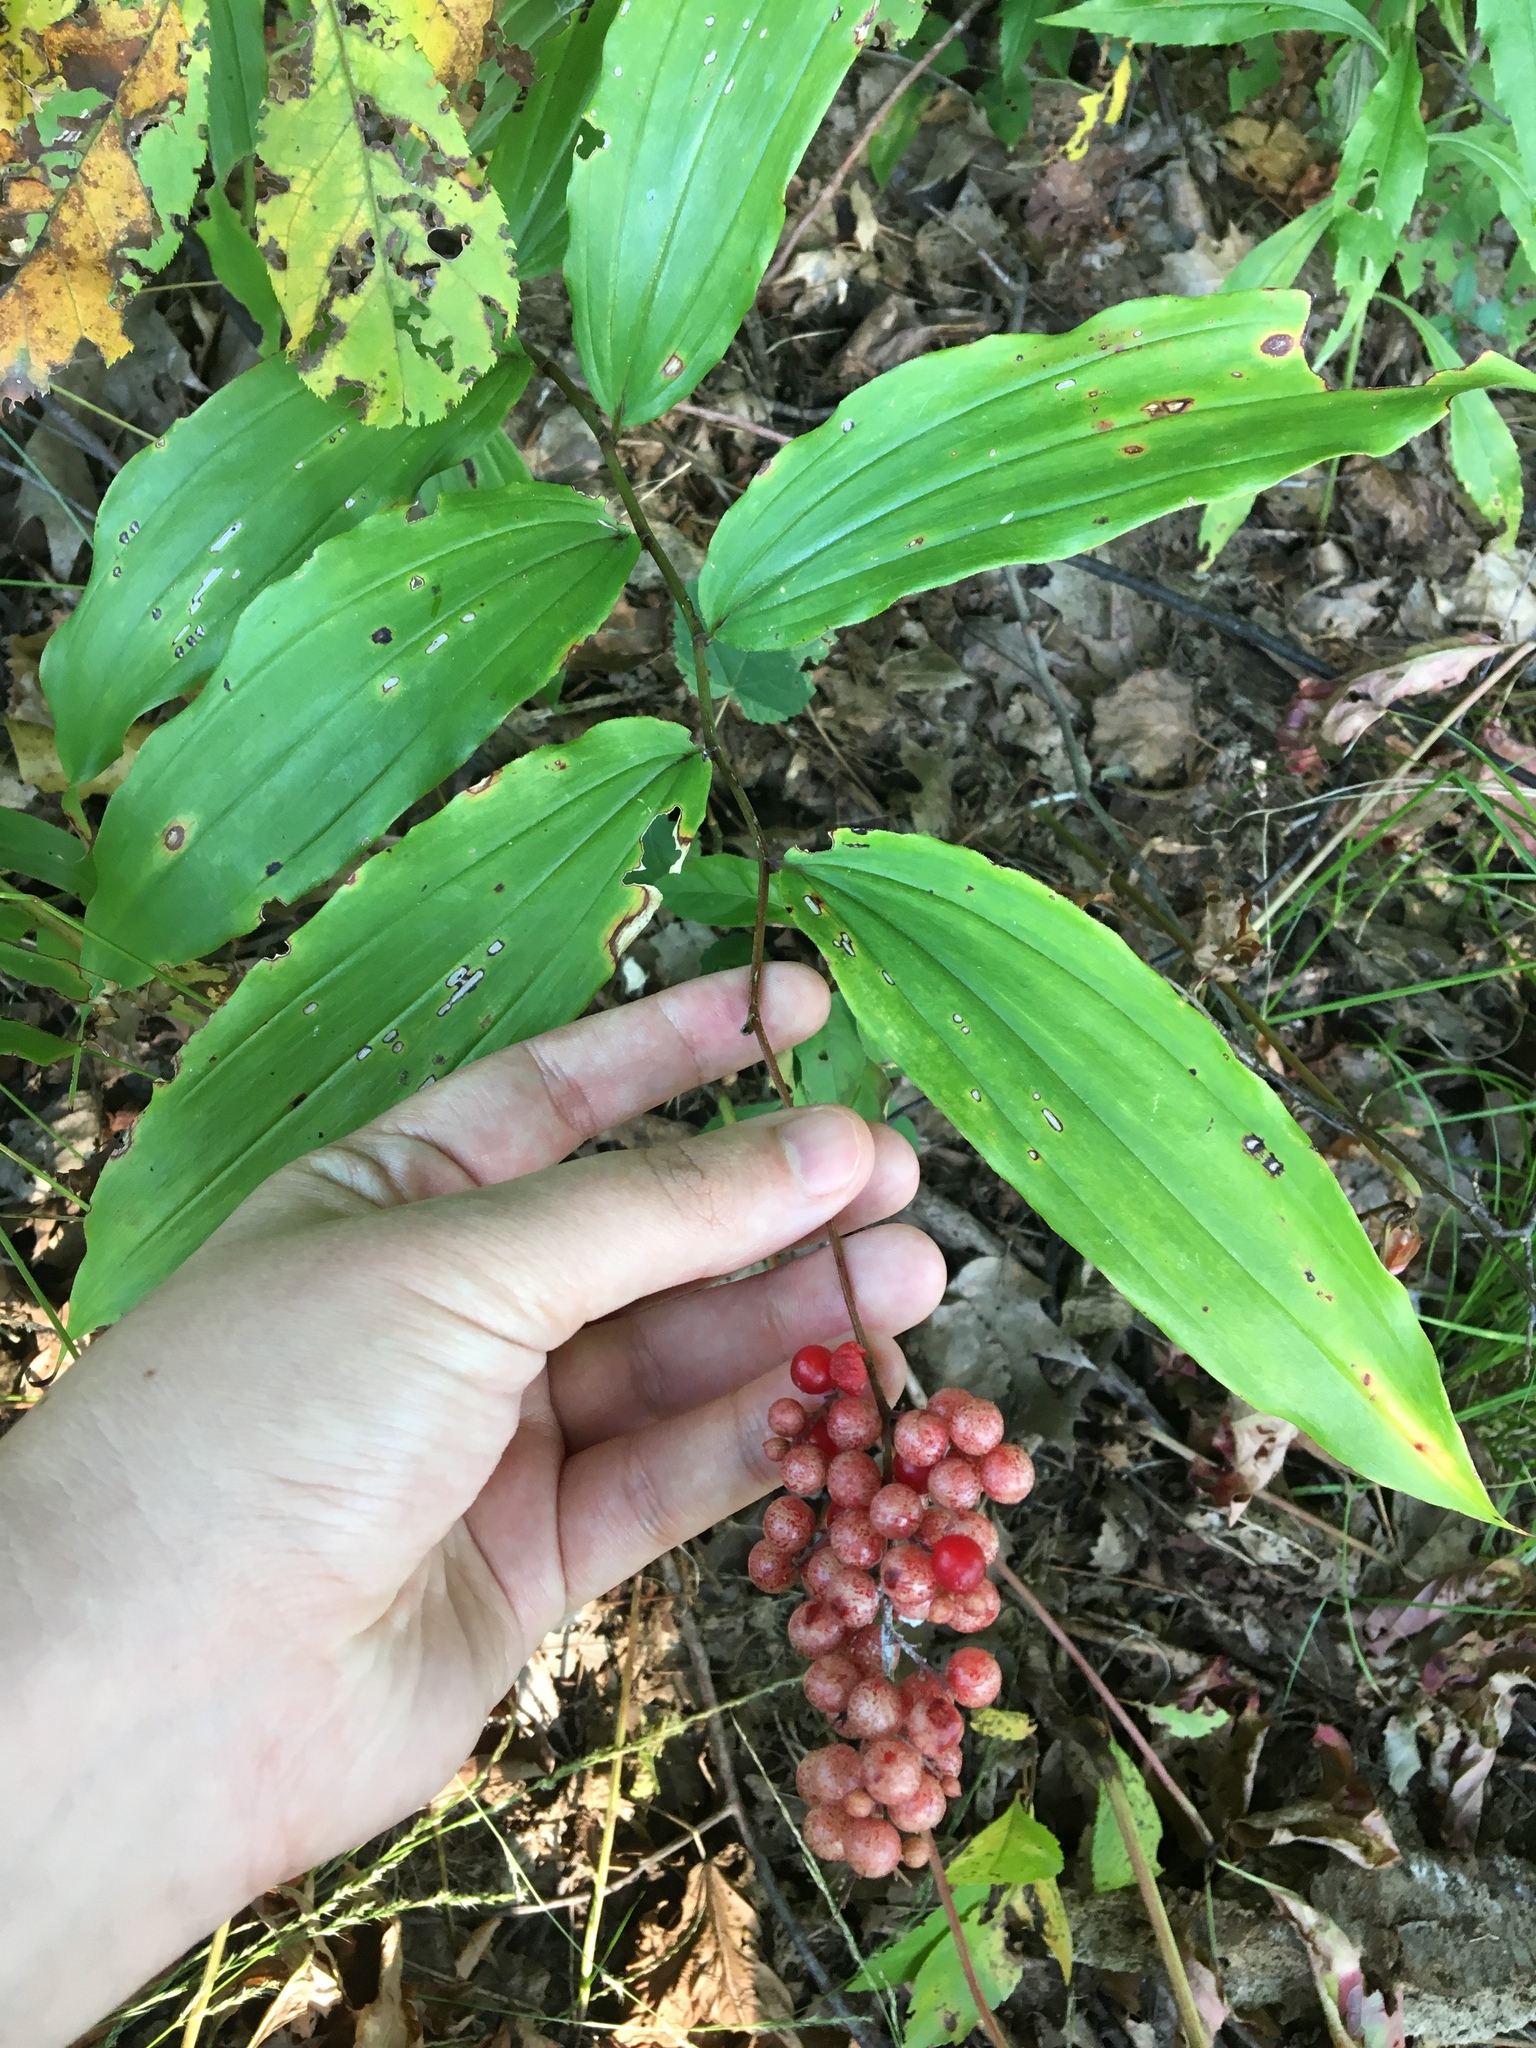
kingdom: Plantae
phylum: Tracheophyta
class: Liliopsida
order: Asparagales
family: Asparagaceae
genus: Maianthemum
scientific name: Maianthemum racemosum
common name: False spikenard
